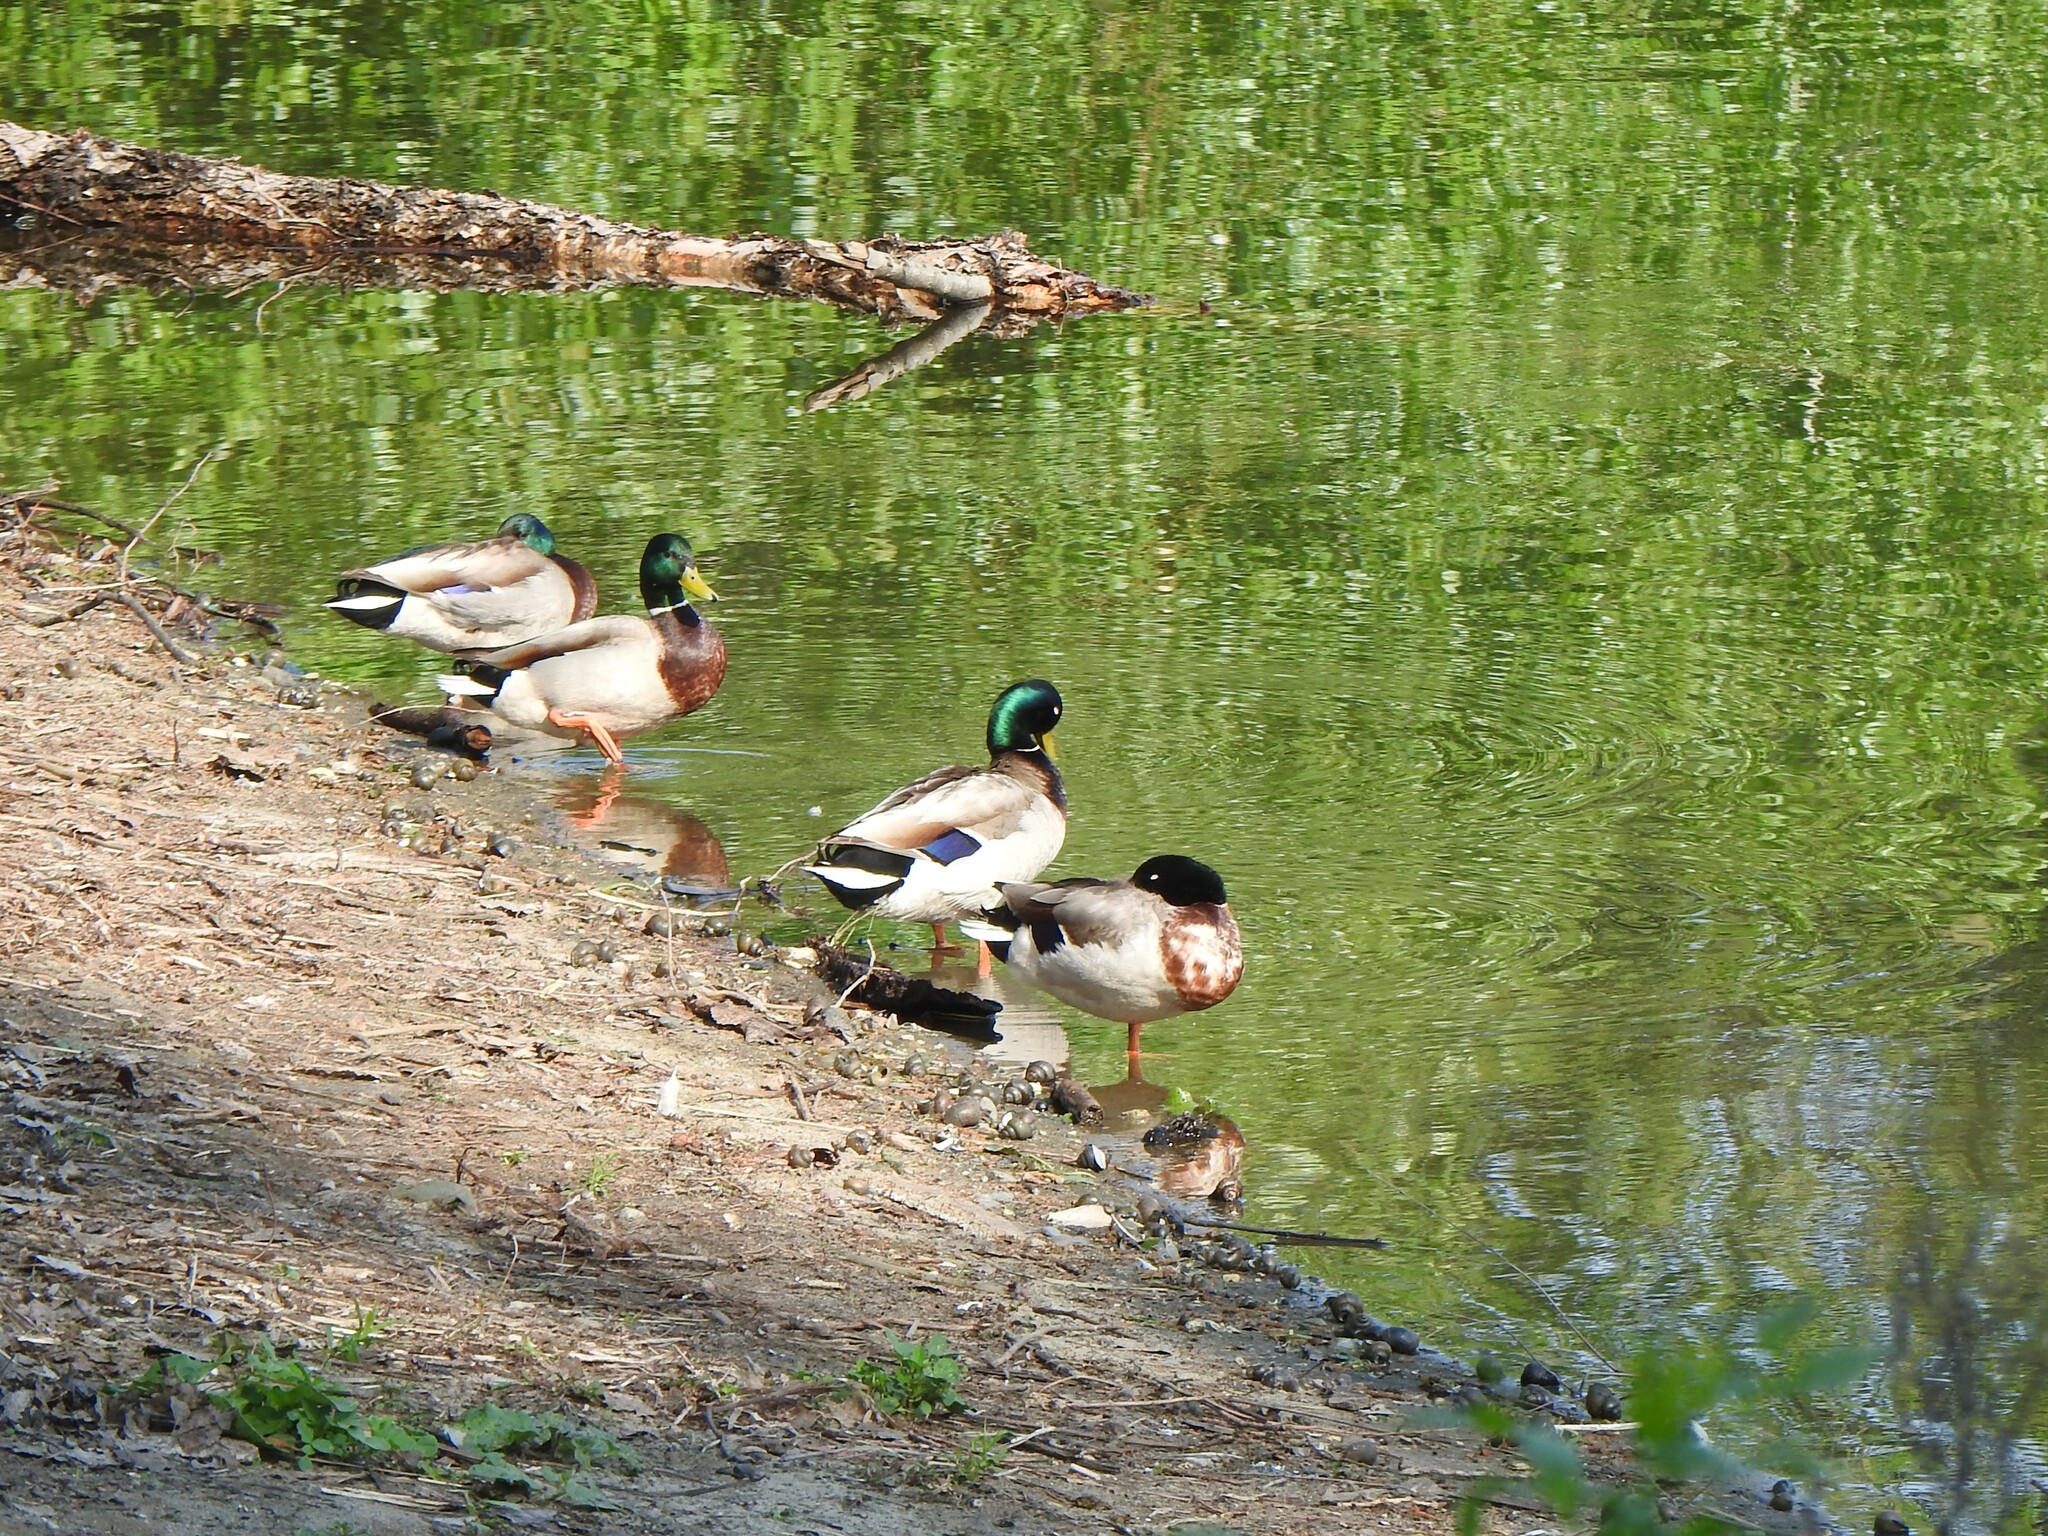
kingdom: Animalia
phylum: Chordata
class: Aves
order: Anseriformes
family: Anatidae
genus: Anas
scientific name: Anas platyrhynchos
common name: Mallard
